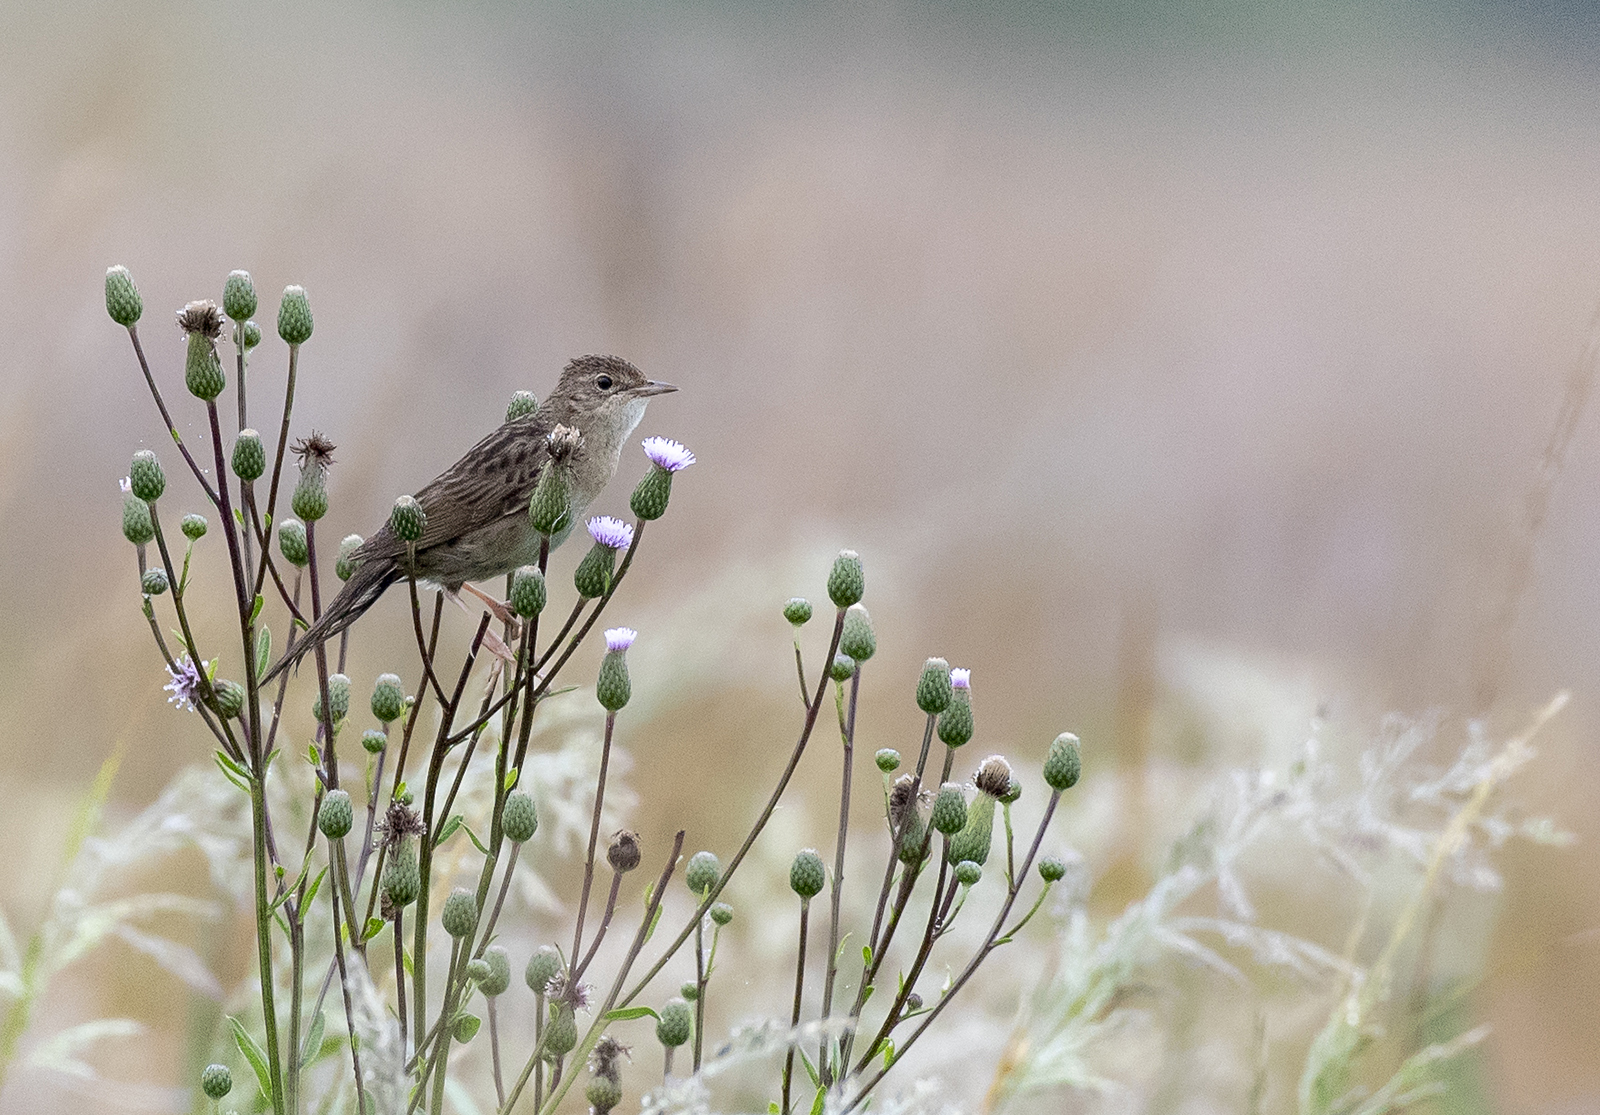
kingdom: Animalia
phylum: Chordata
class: Aves
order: Passeriformes
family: Locustellidae
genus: Locustella
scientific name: Locustella naevia
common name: Common grasshopper warbler
